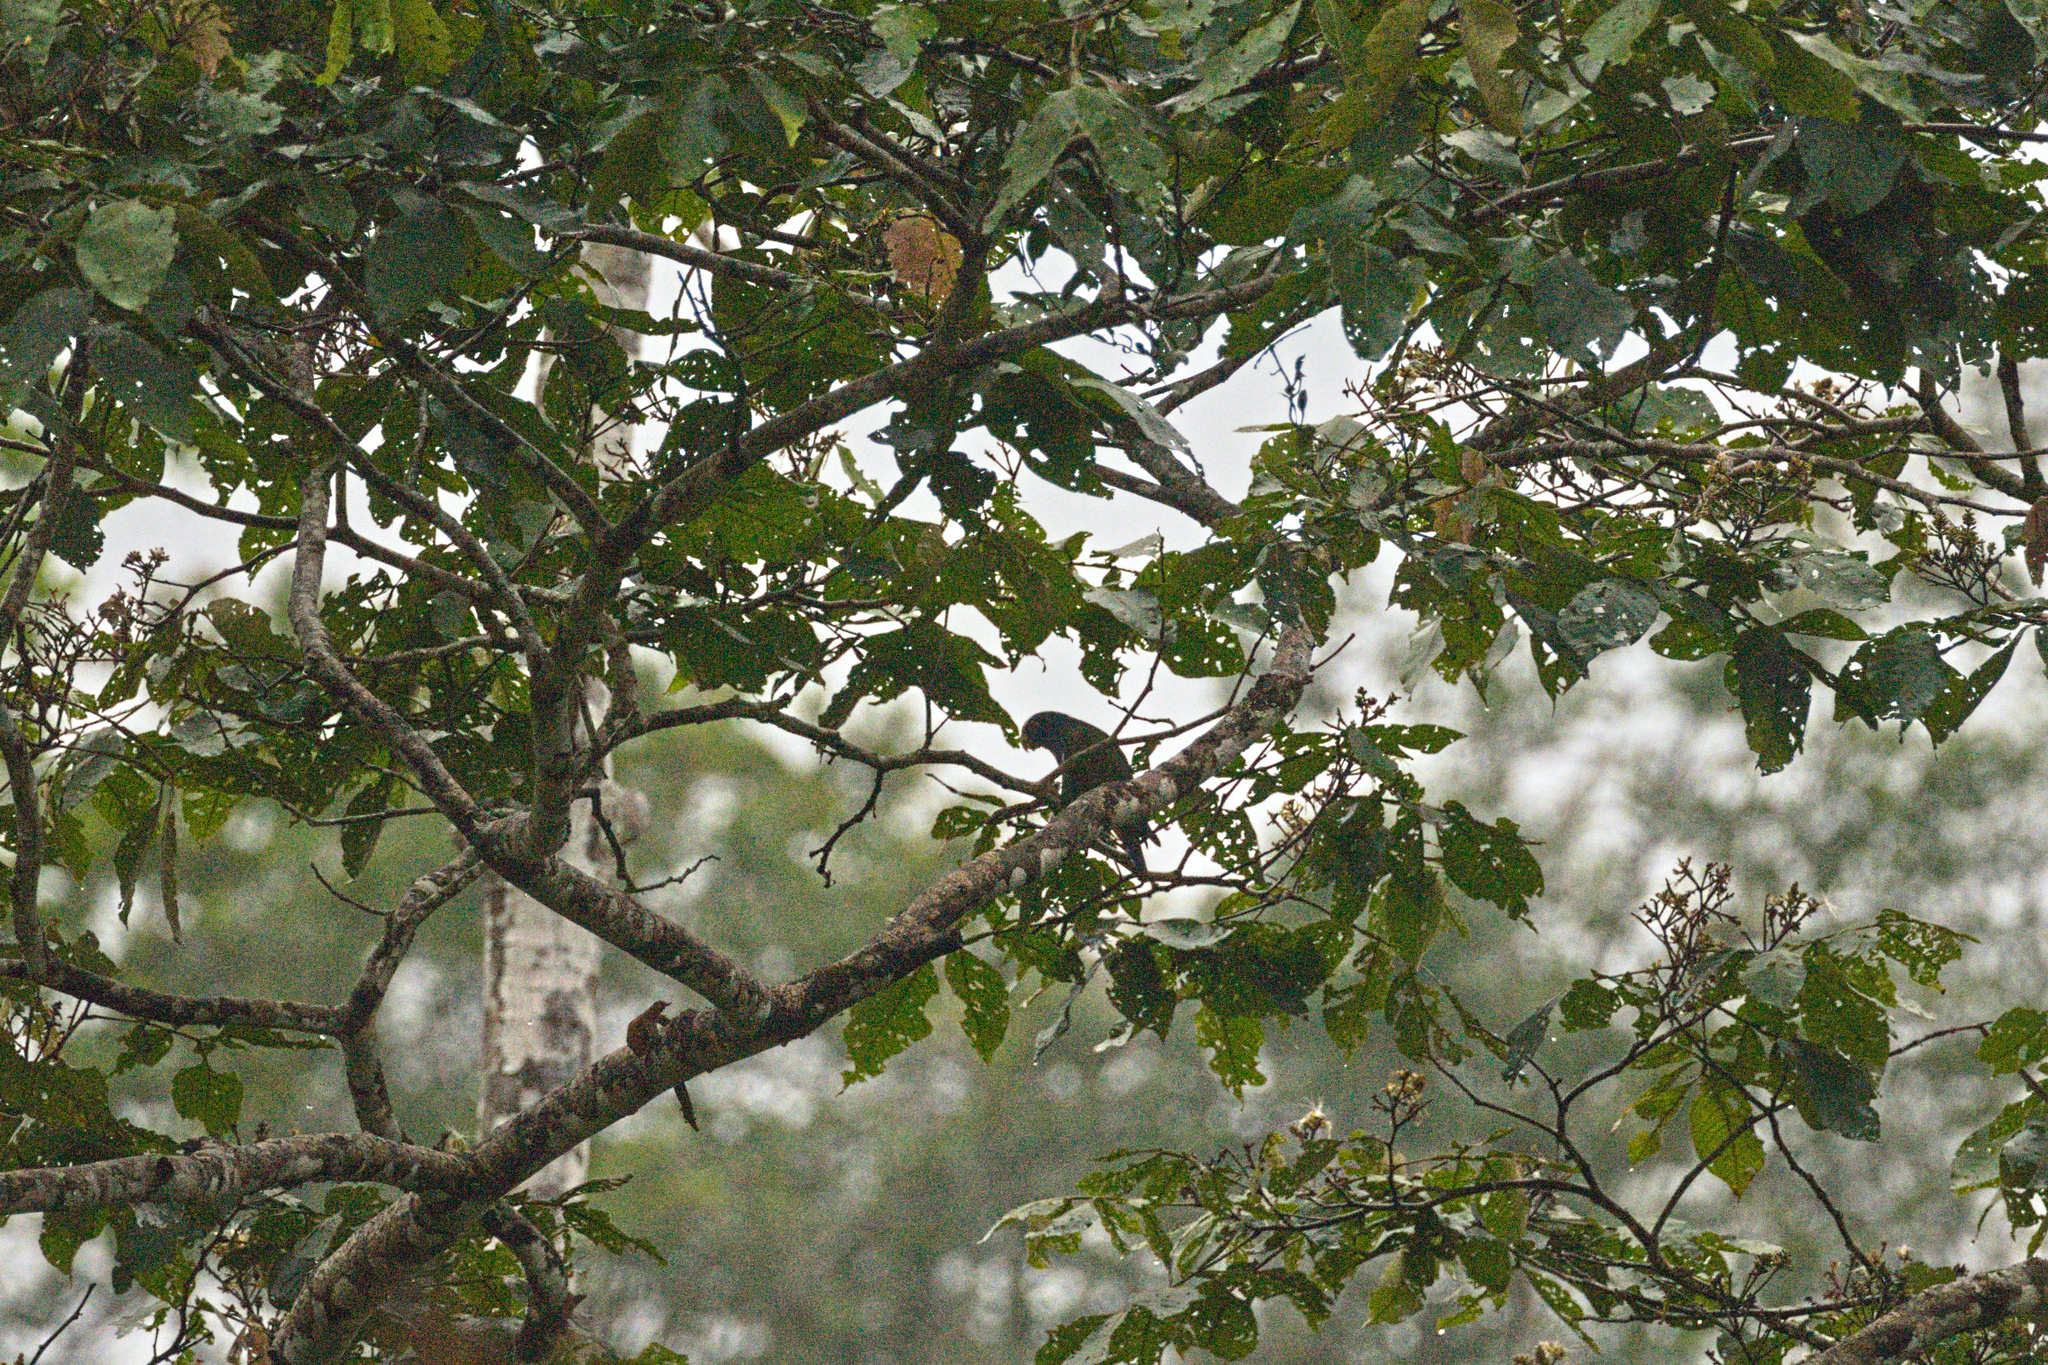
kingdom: Animalia
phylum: Chordata
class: Aves
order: Psittaciformes
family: Psittacidae
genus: Pionus
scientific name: Pionus senilis
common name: White-crowned parrot
